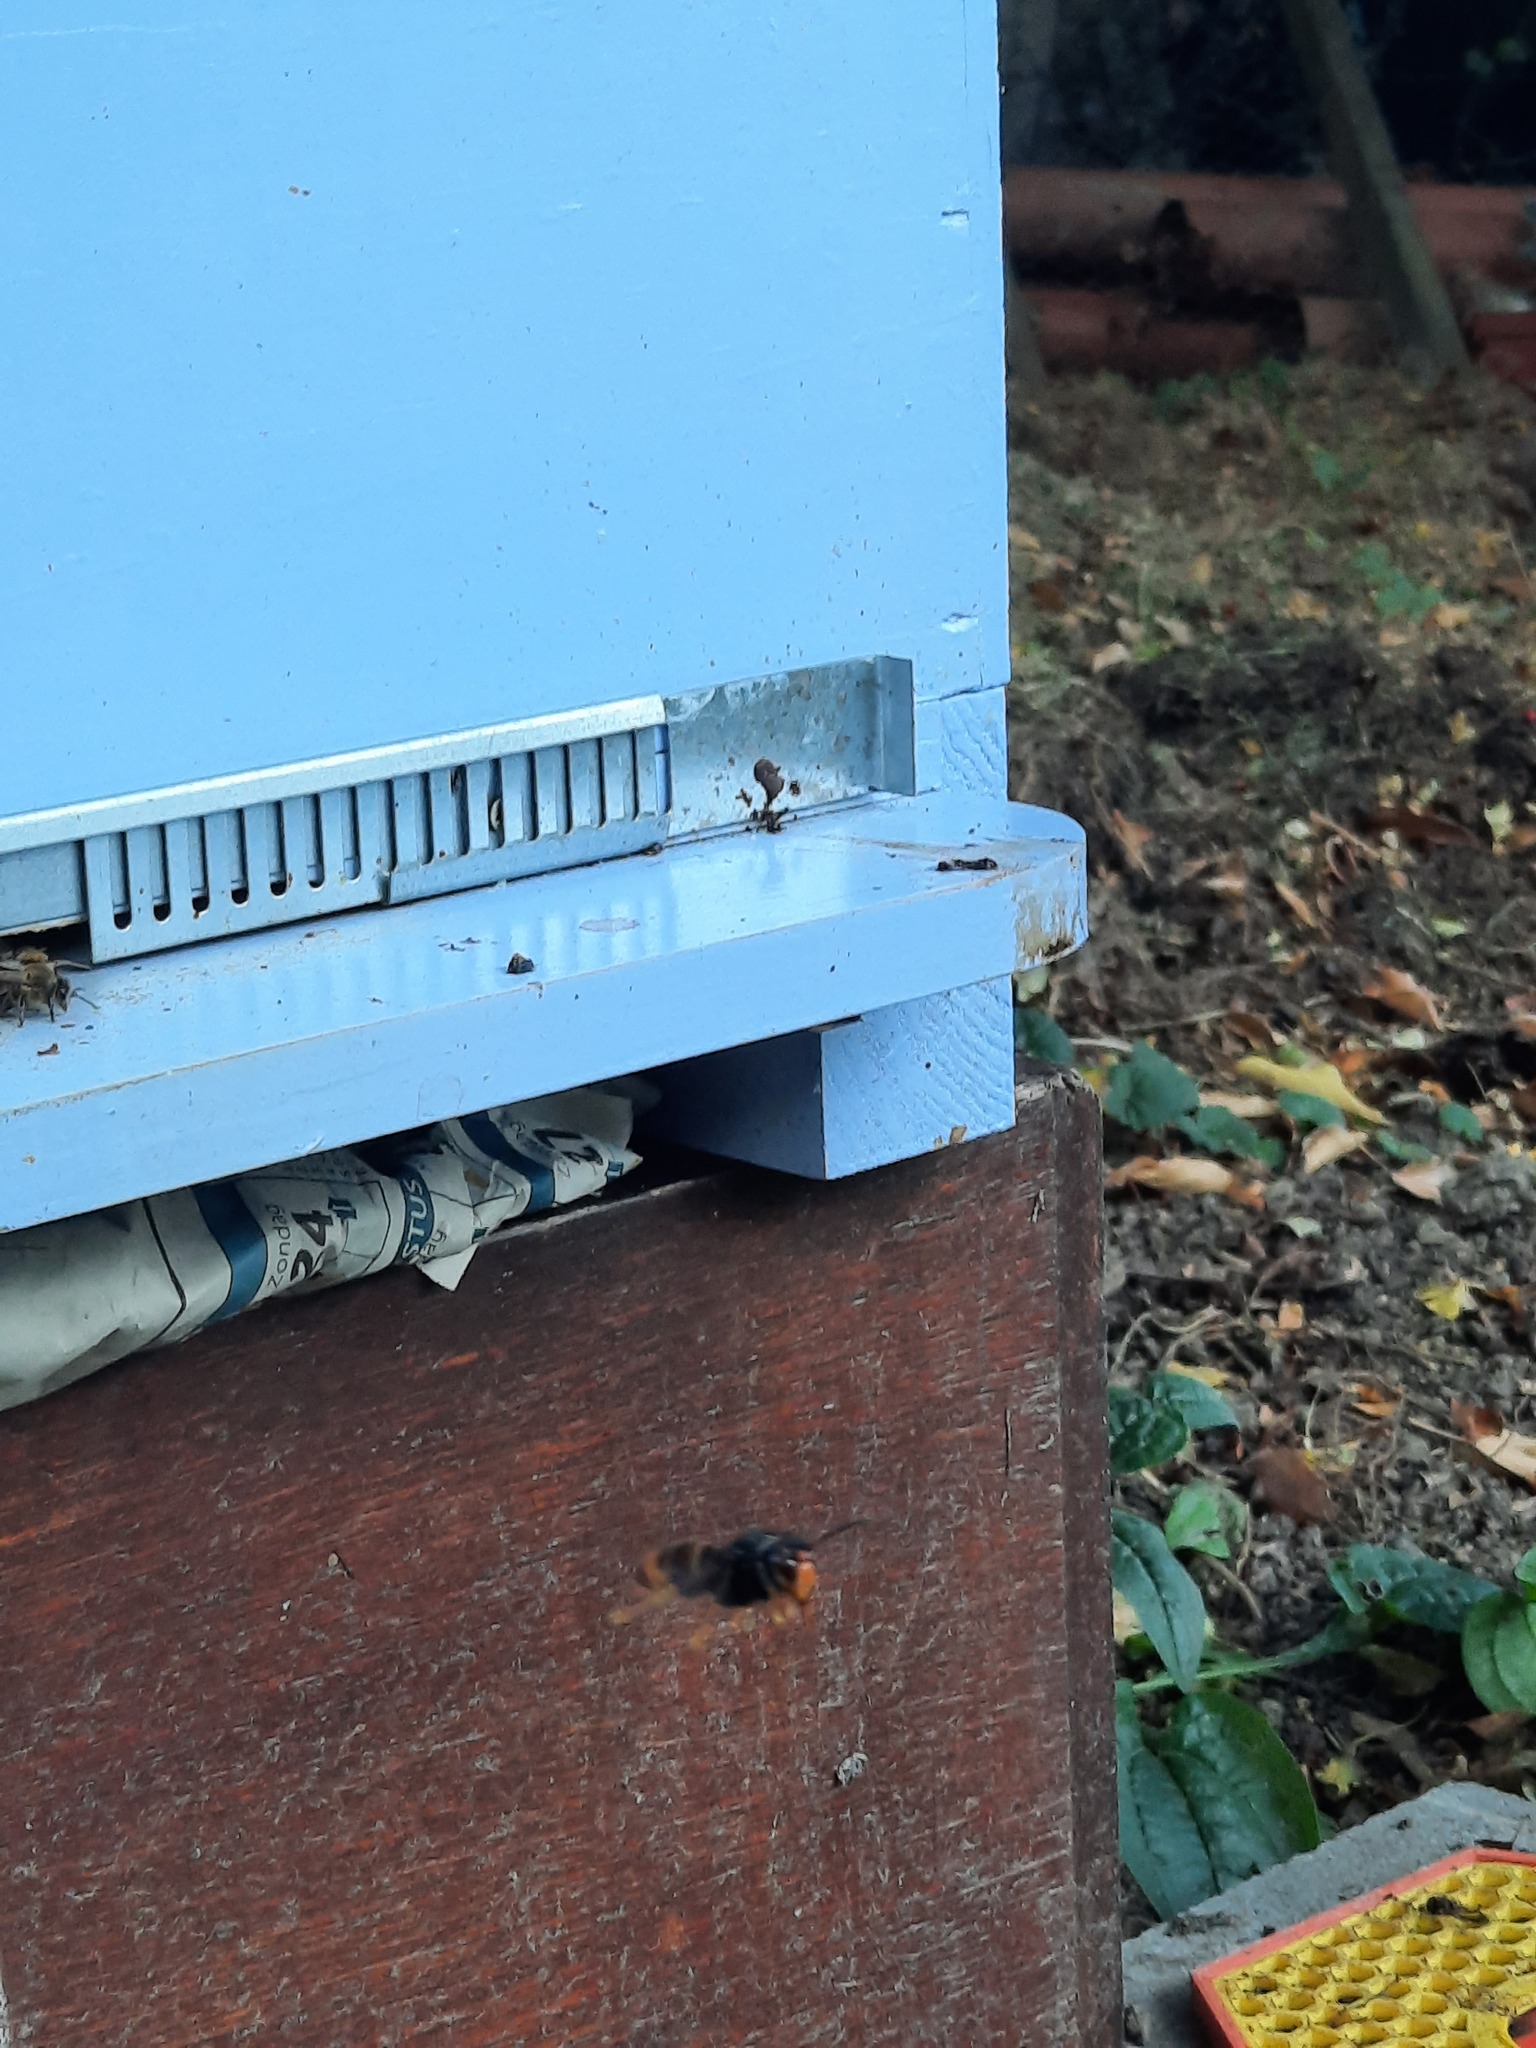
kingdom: Animalia
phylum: Arthropoda
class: Insecta
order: Hymenoptera
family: Vespidae
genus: Vespa
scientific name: Vespa velutina
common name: Asian hornet
